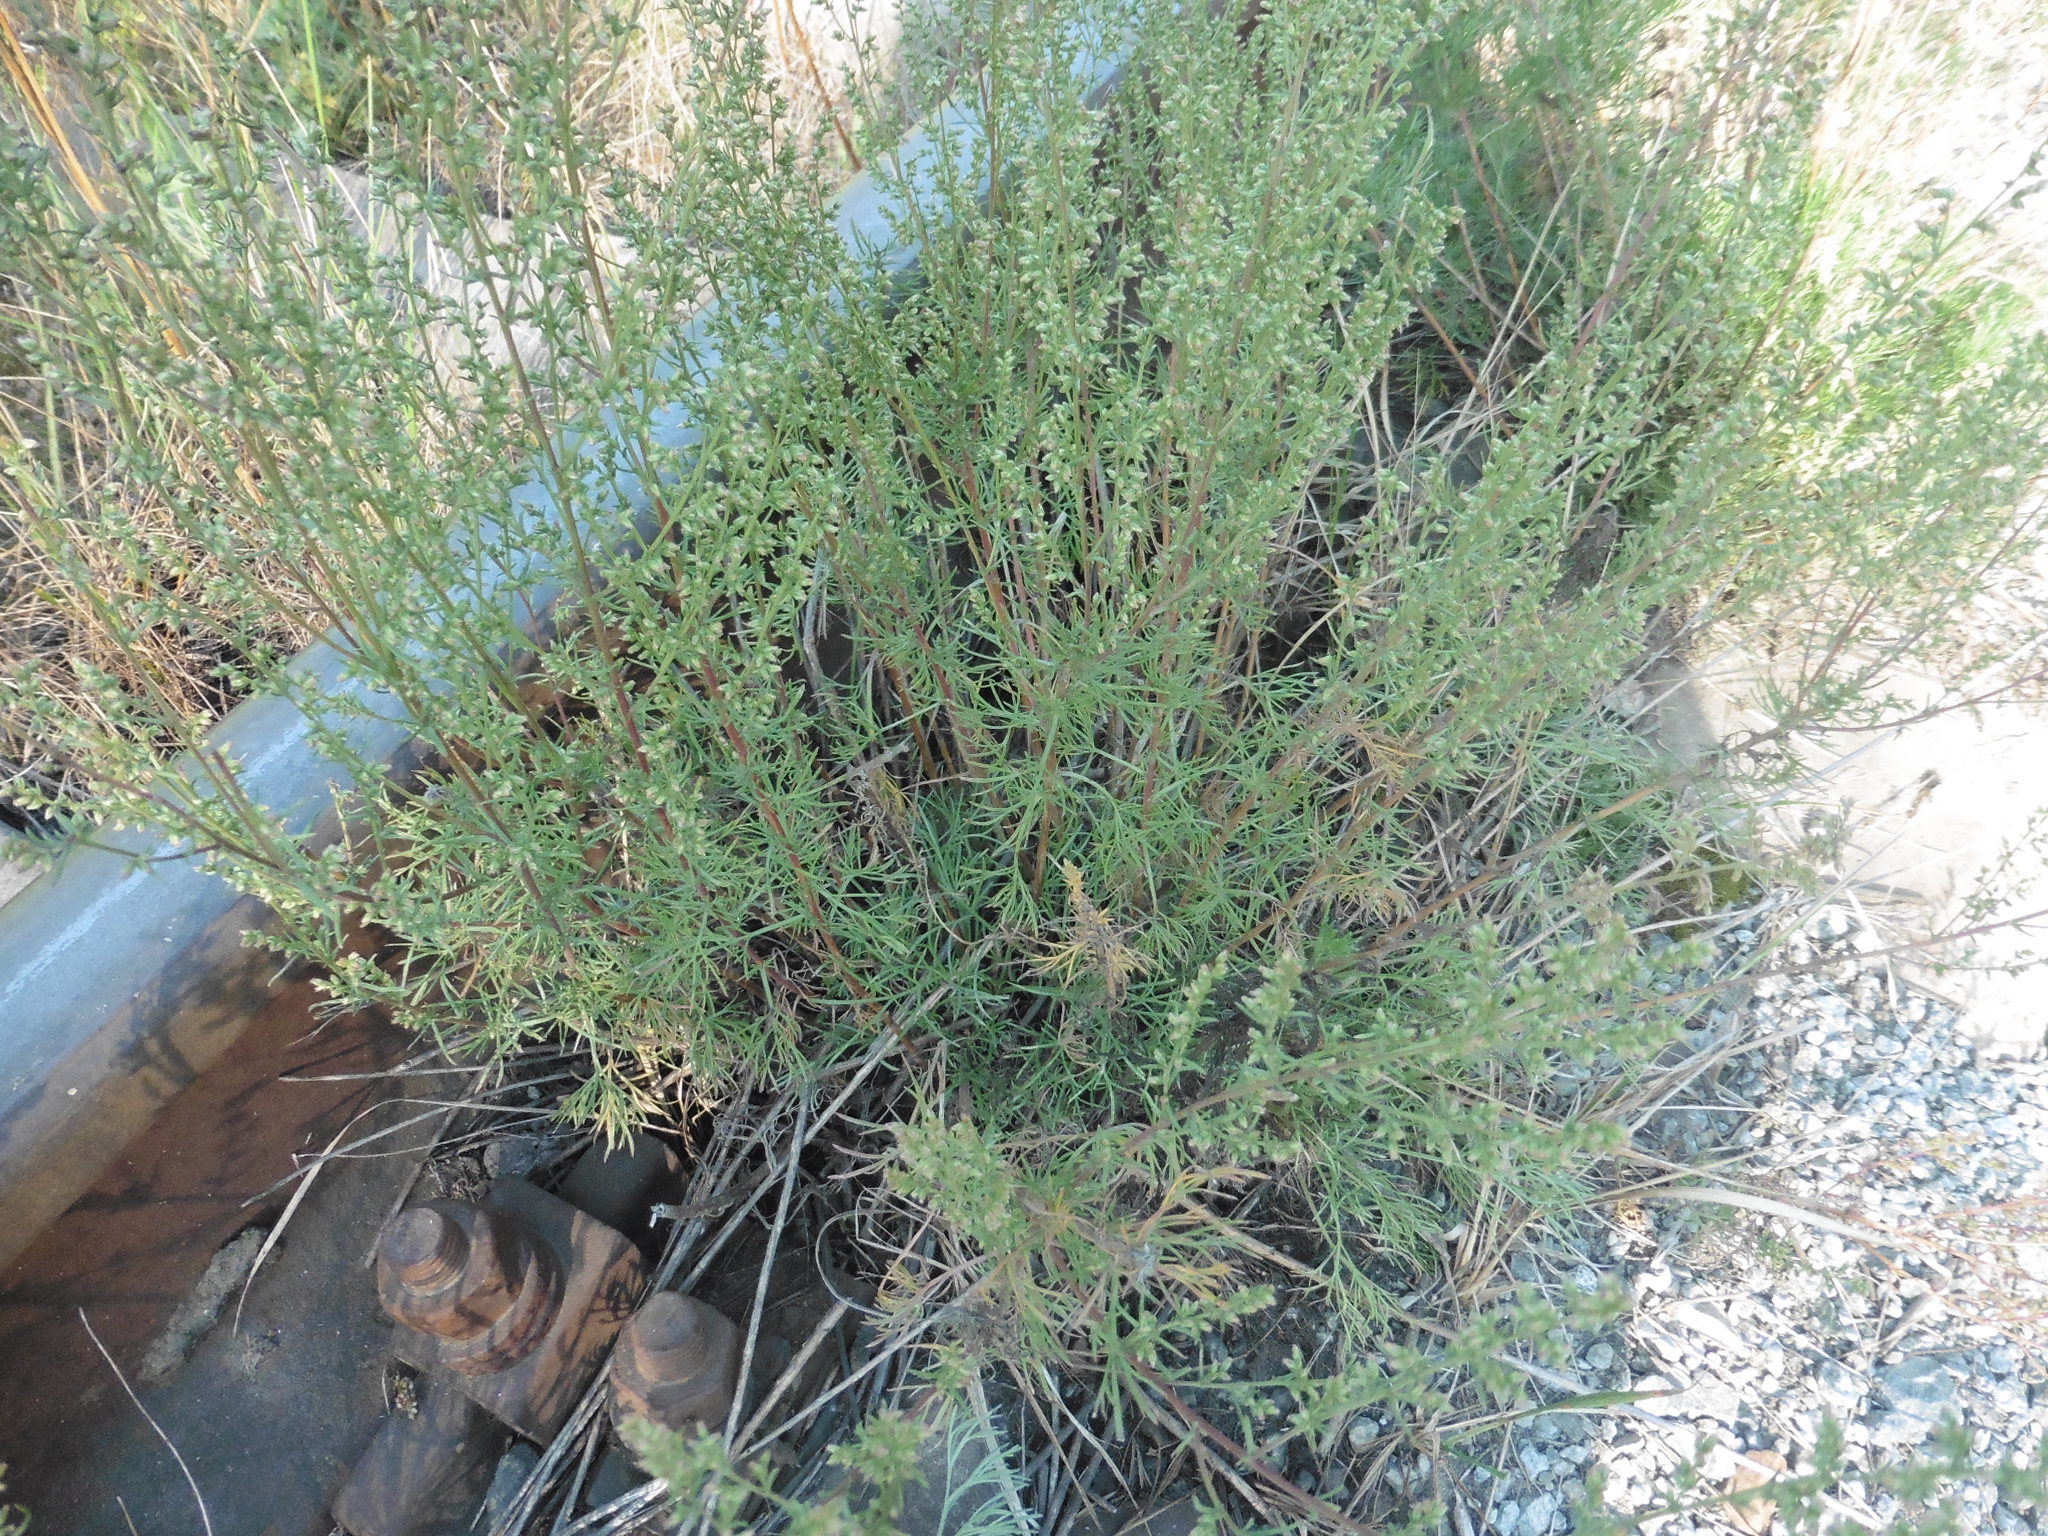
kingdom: Plantae
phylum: Tracheophyta
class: Magnoliopsida
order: Asterales
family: Asteraceae
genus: Artemisia
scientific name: Artemisia campestris
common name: Field wormwood
